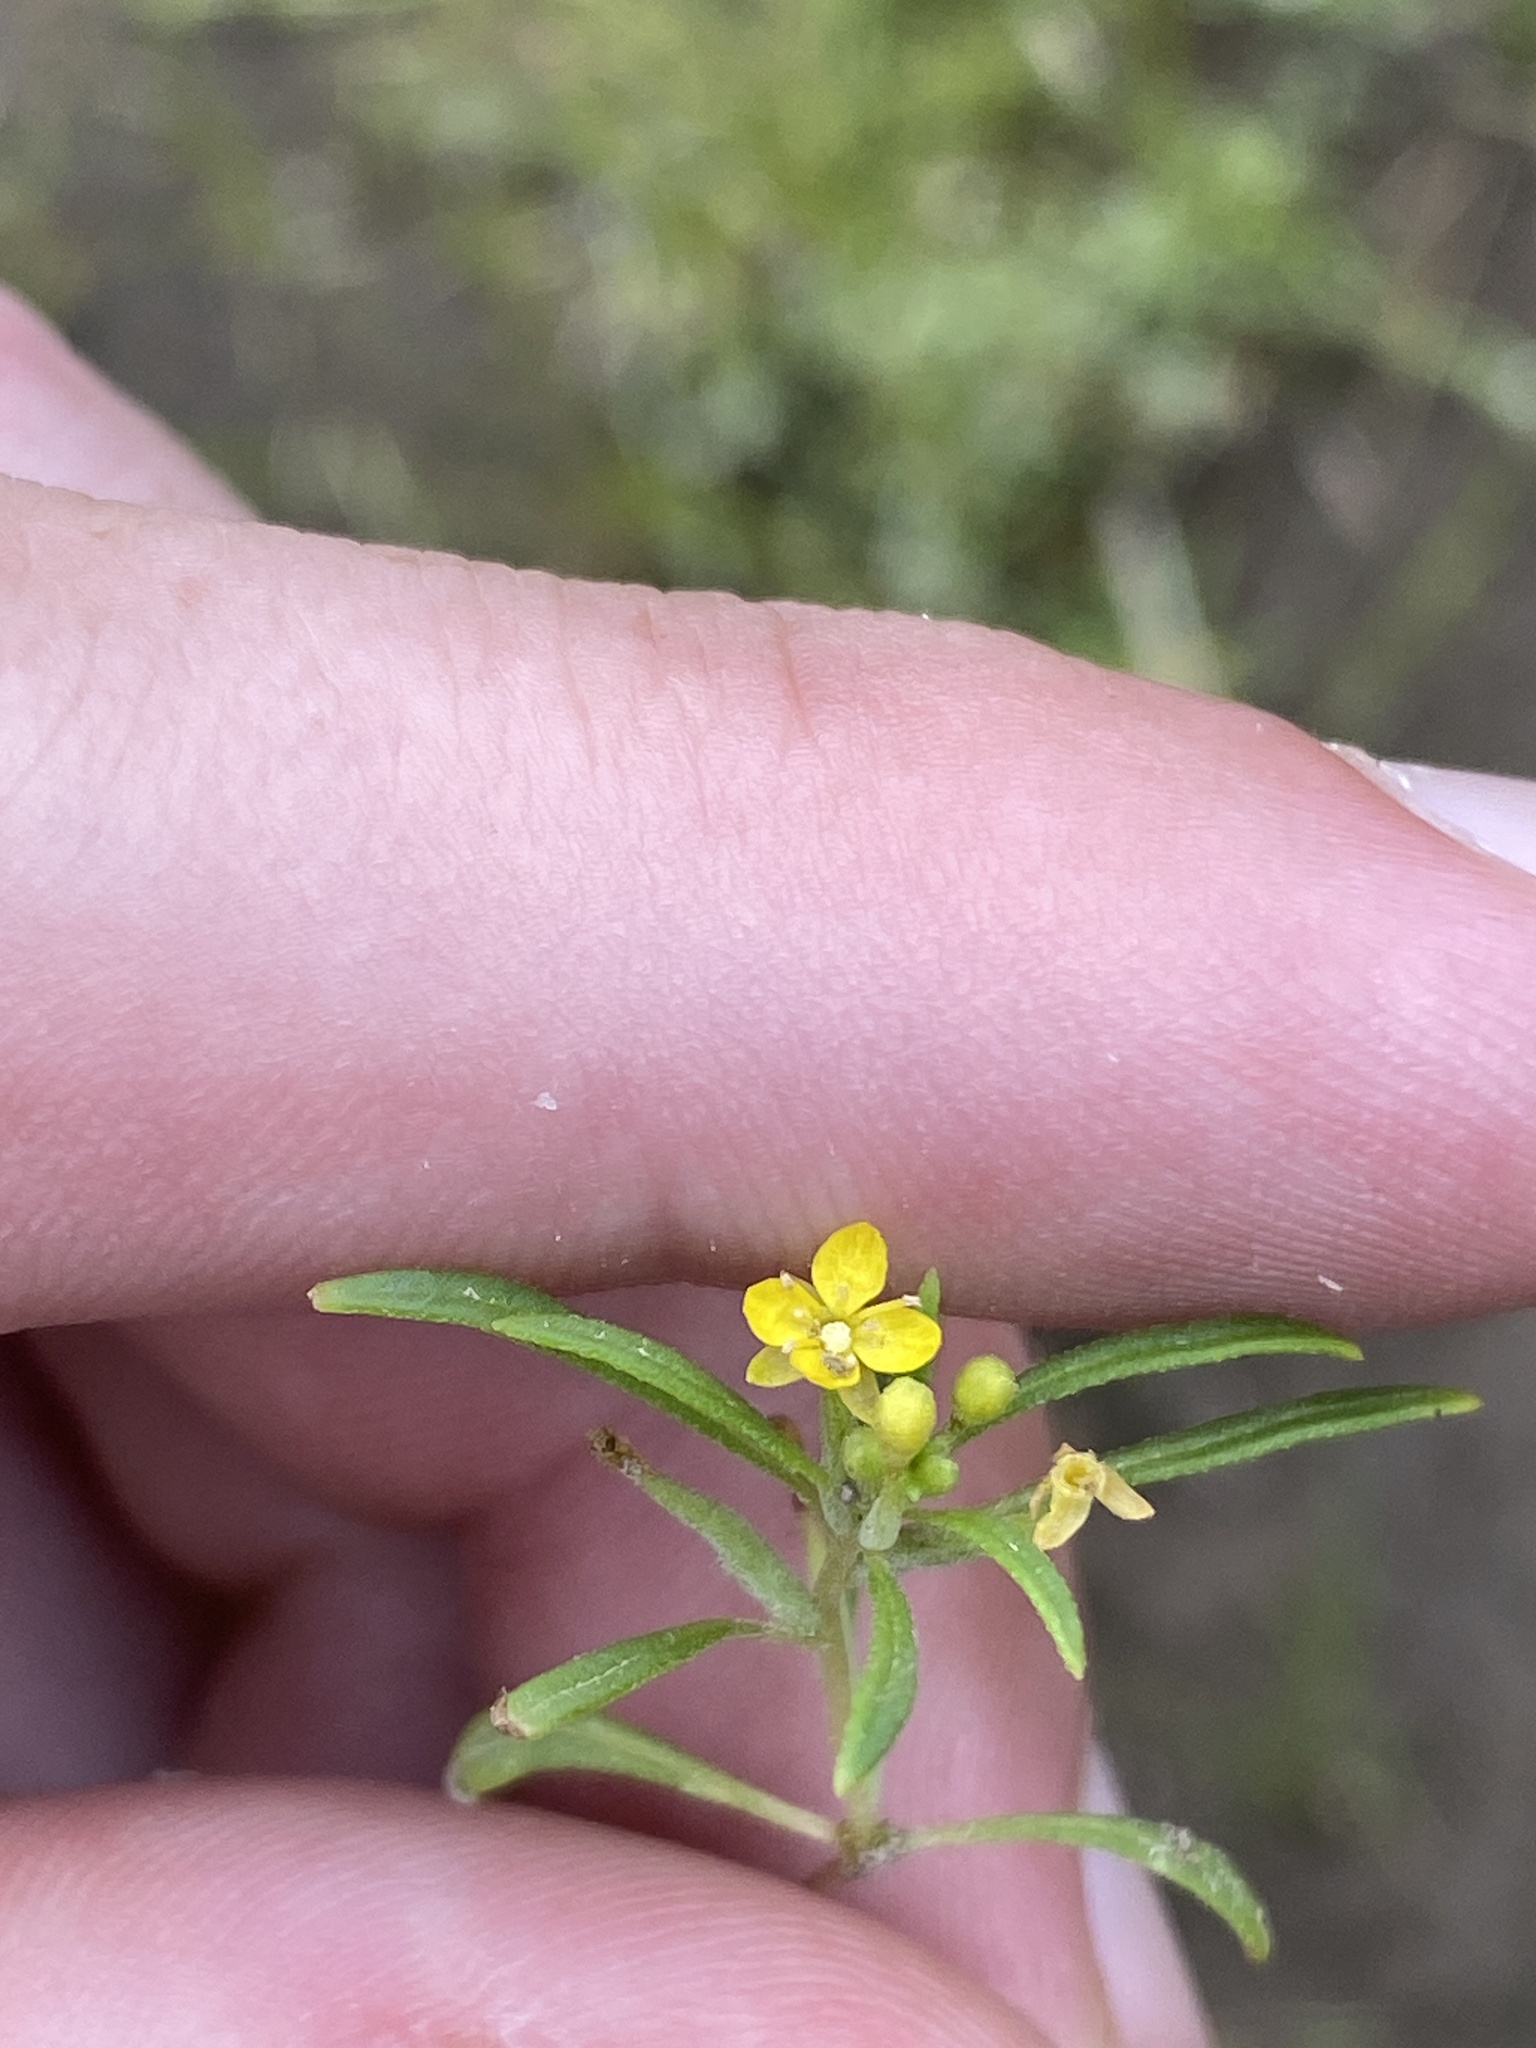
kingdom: Plantae
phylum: Tracheophyta
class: Magnoliopsida
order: Myrtales
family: Onagraceae
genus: Neoholmgrenia
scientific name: Neoholmgrenia andina
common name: Andean evening primrose
